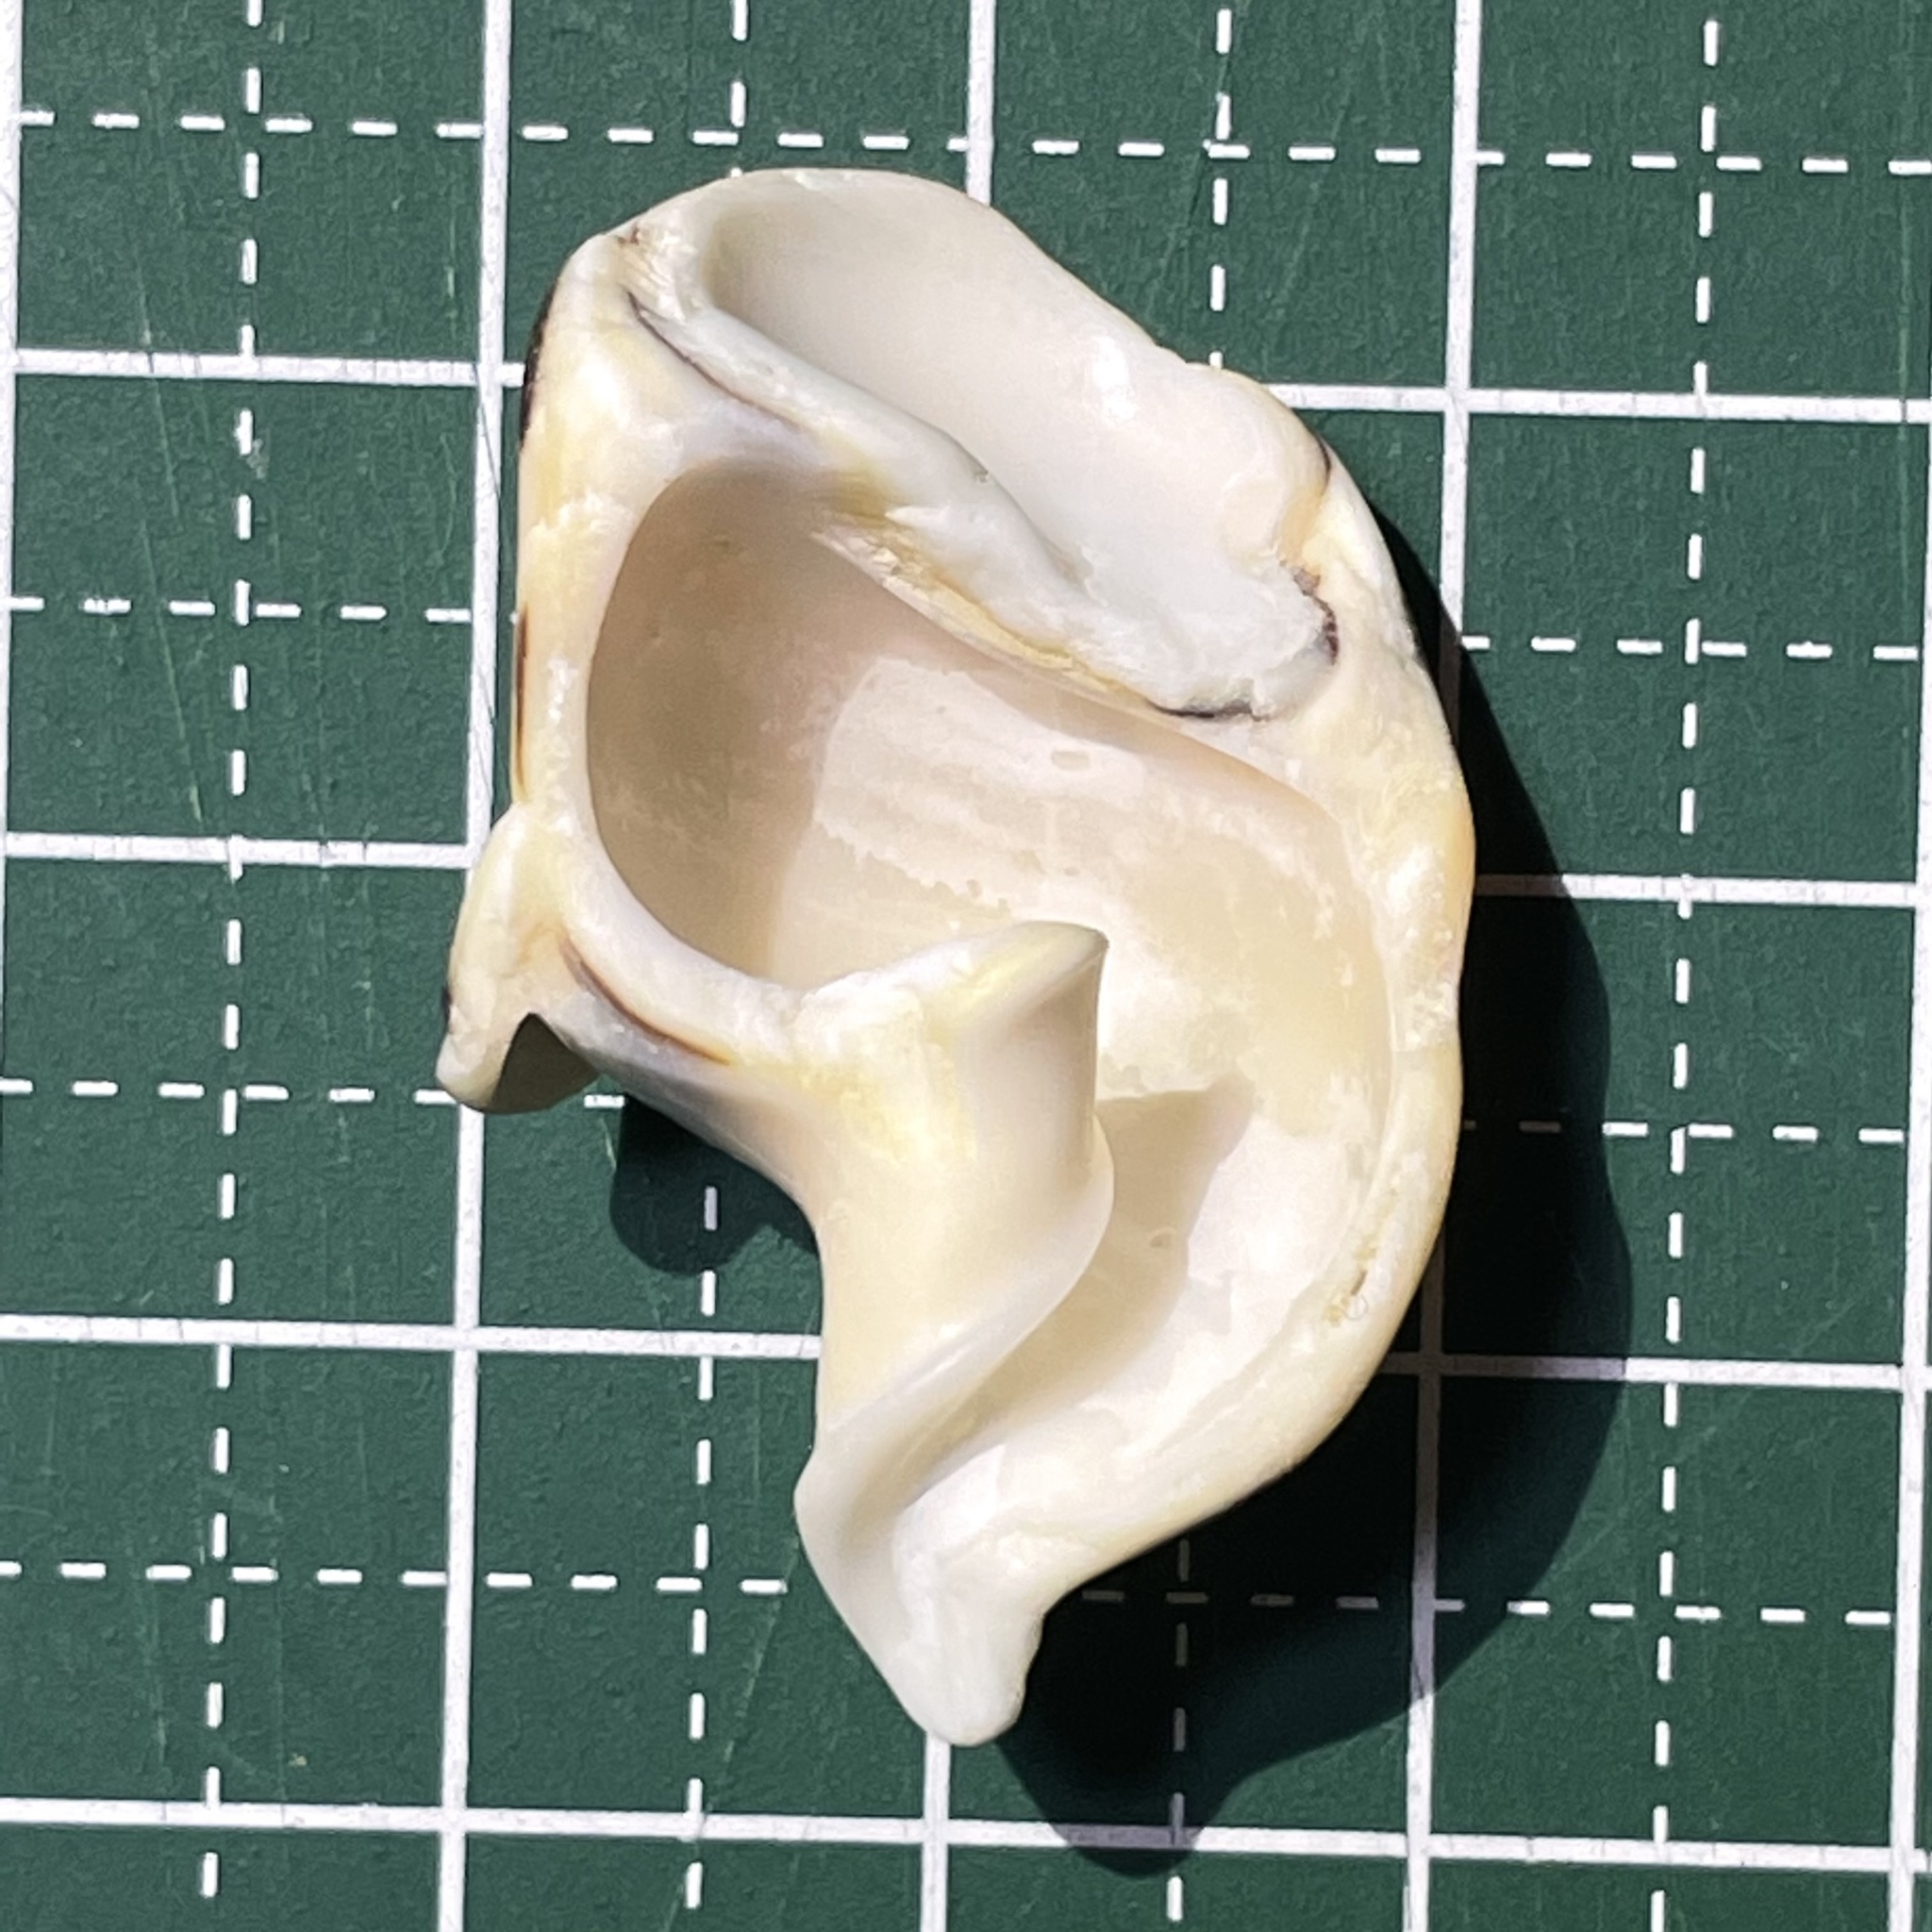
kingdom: Animalia
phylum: Mollusca
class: Gastropoda
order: Neogastropoda
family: Terebridae
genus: Terebra
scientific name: Terebra subulata
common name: Chocolate spotted auger
